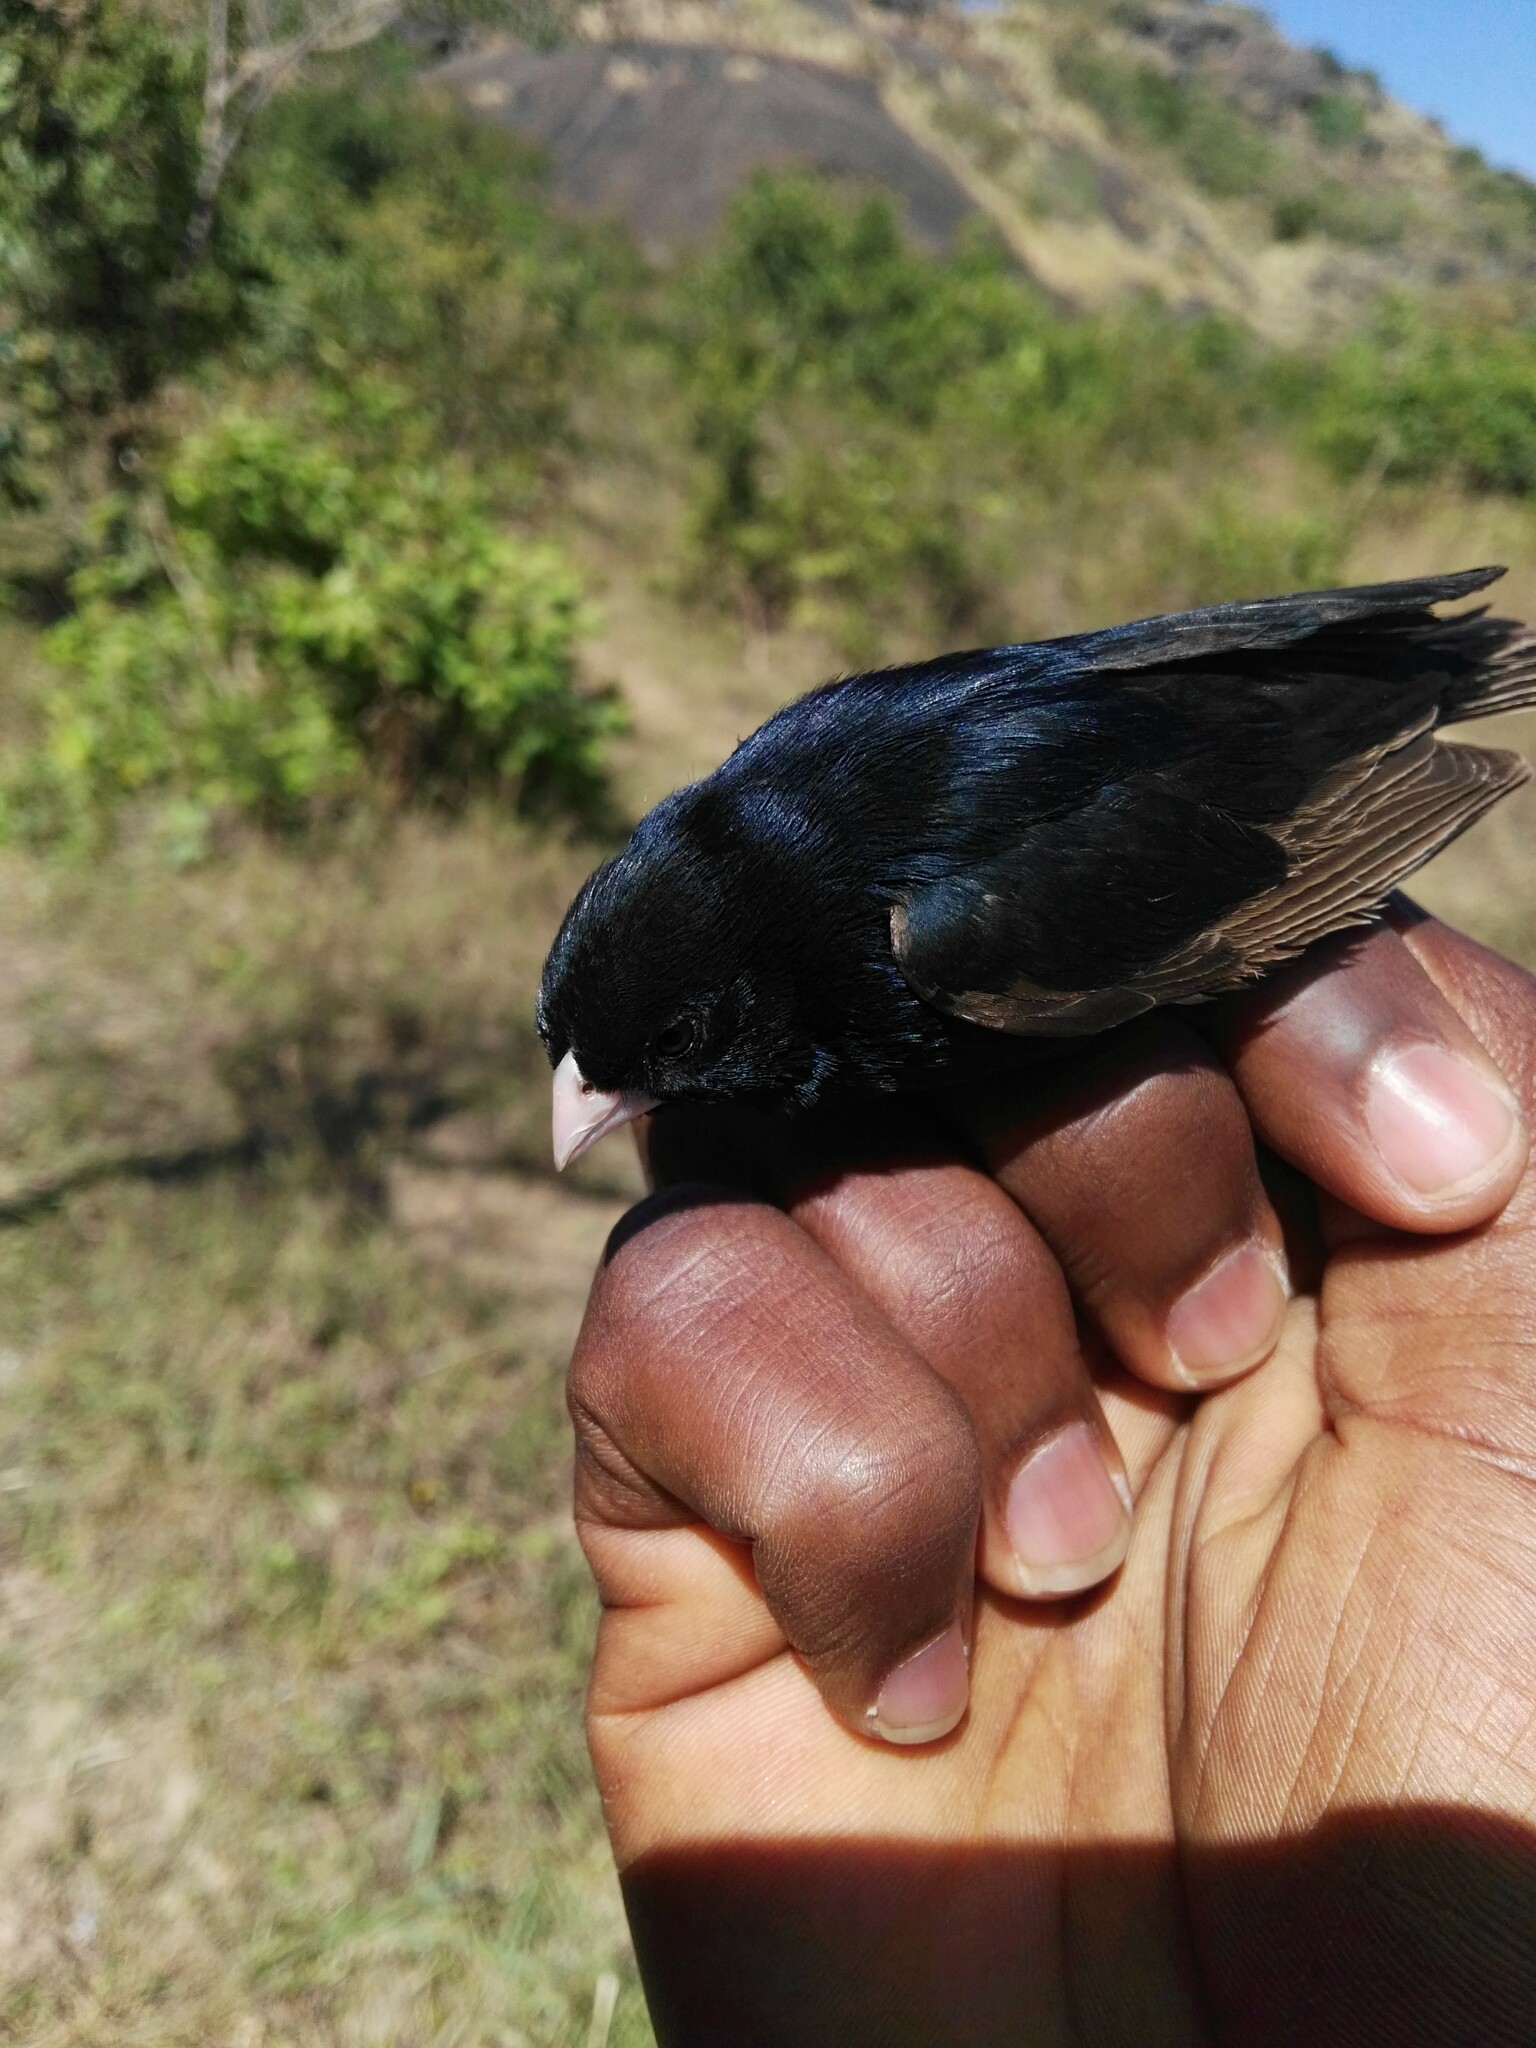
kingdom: Animalia
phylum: Chordata
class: Aves
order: Passeriformes
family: Viduidae
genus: Vidua
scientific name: Vidua maryae
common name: Jos plateau indigobird
